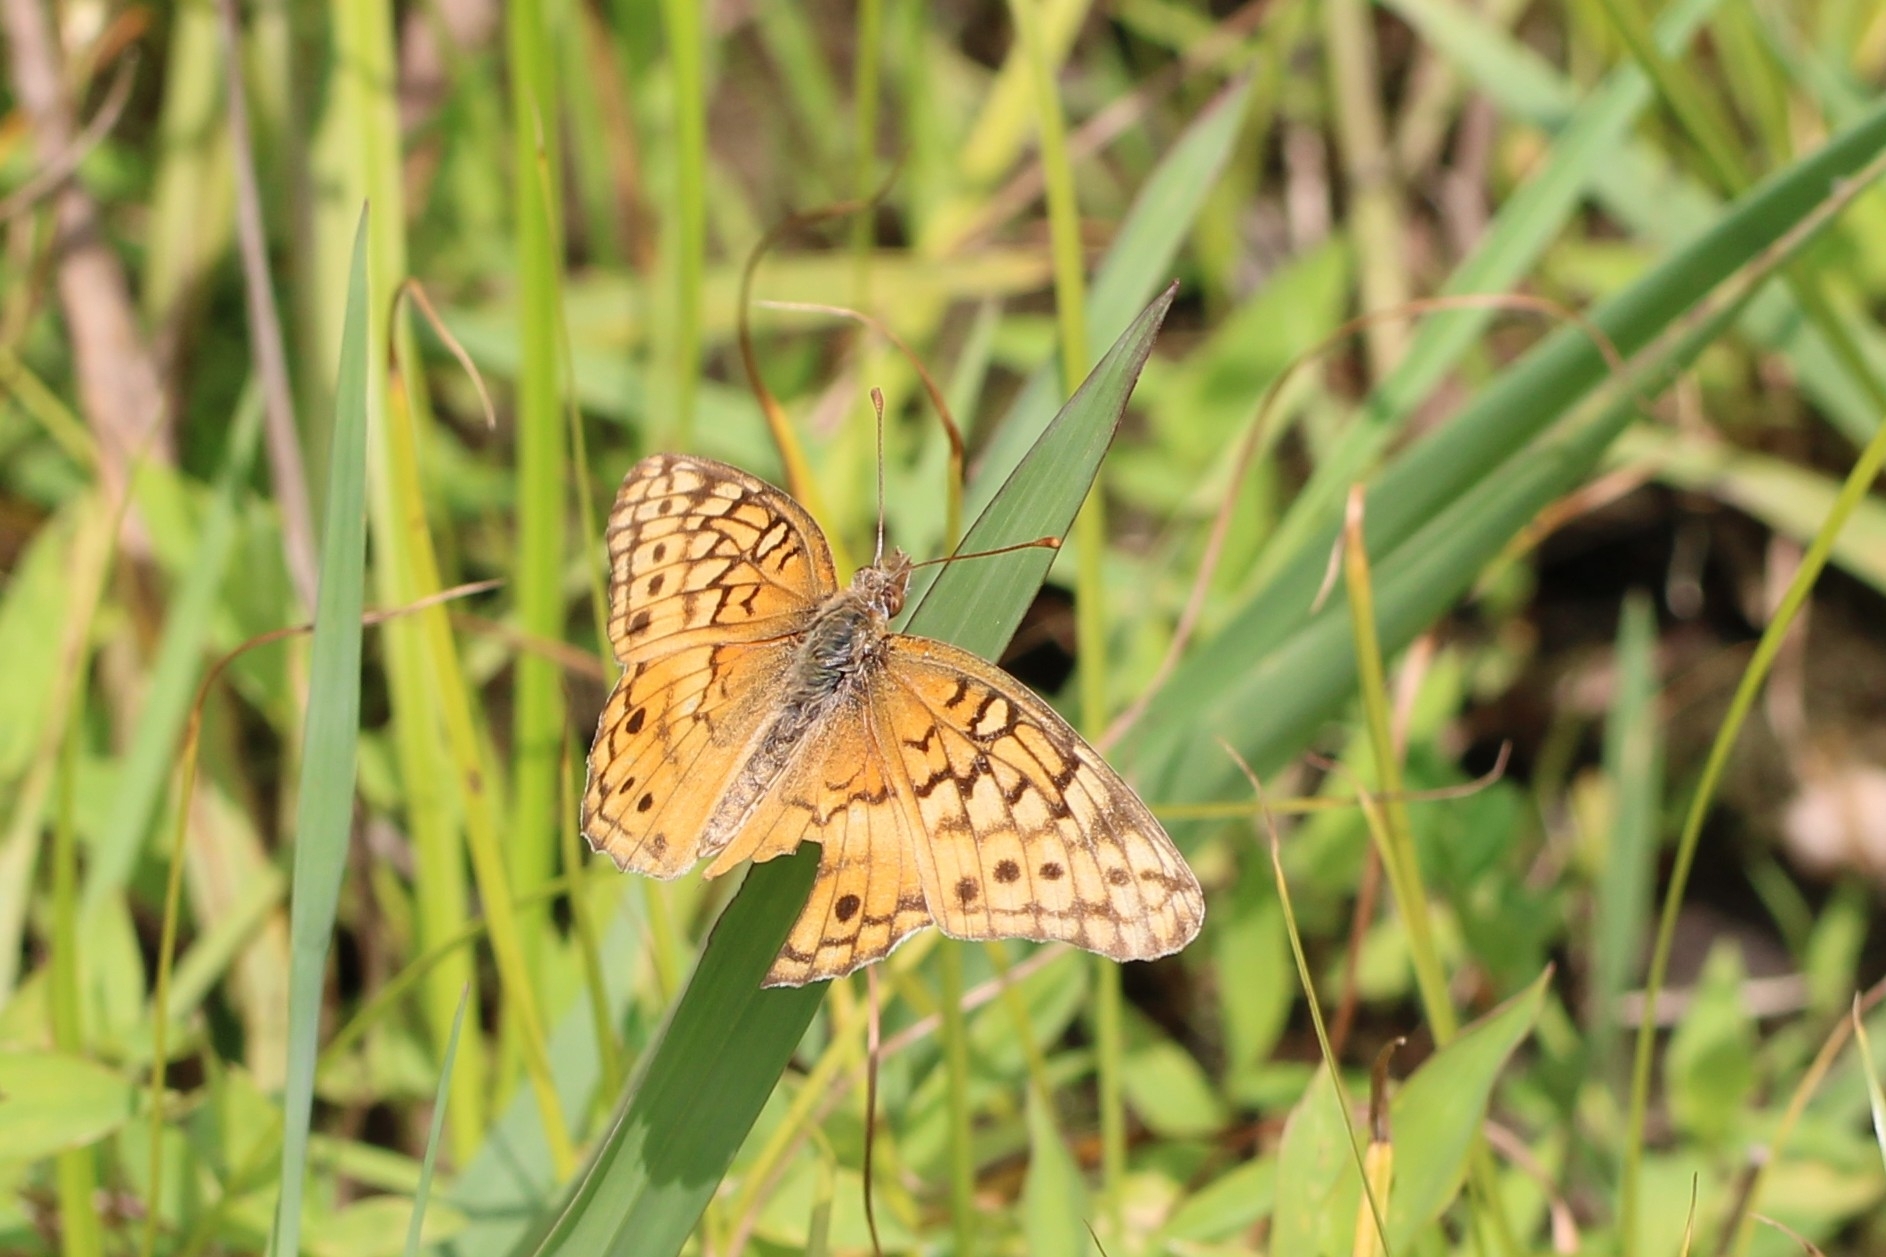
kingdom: Animalia
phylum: Arthropoda
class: Insecta
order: Lepidoptera
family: Nymphalidae
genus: Euptoieta
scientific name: Euptoieta claudia
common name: Variegated fritillary
